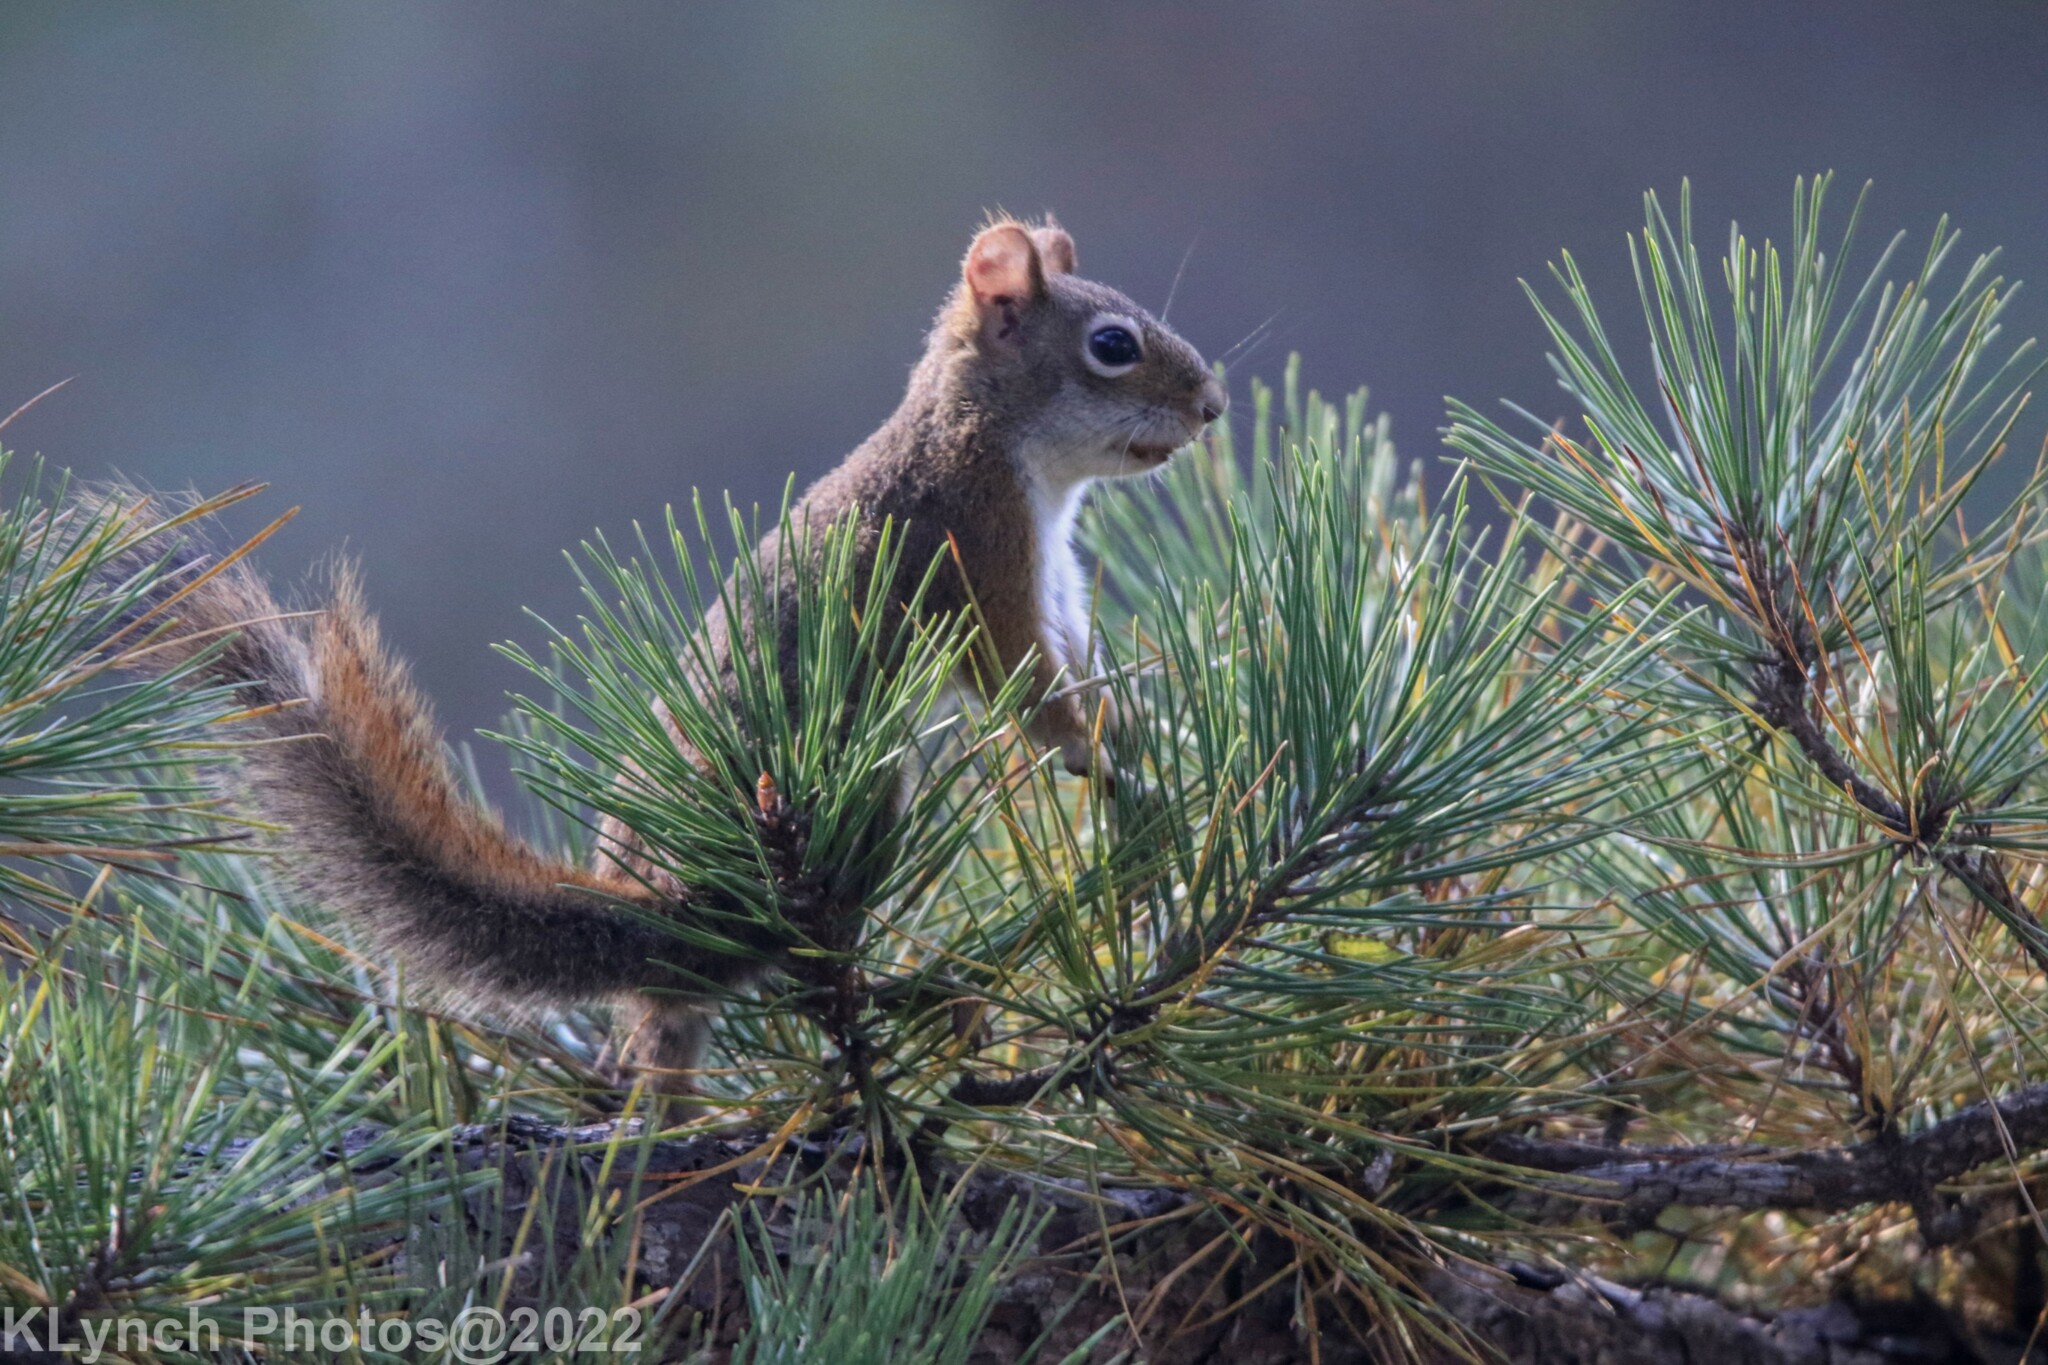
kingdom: Animalia
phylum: Chordata
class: Mammalia
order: Rodentia
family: Sciuridae
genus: Tamiasciurus
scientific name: Tamiasciurus hudsonicus
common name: Red squirrel
